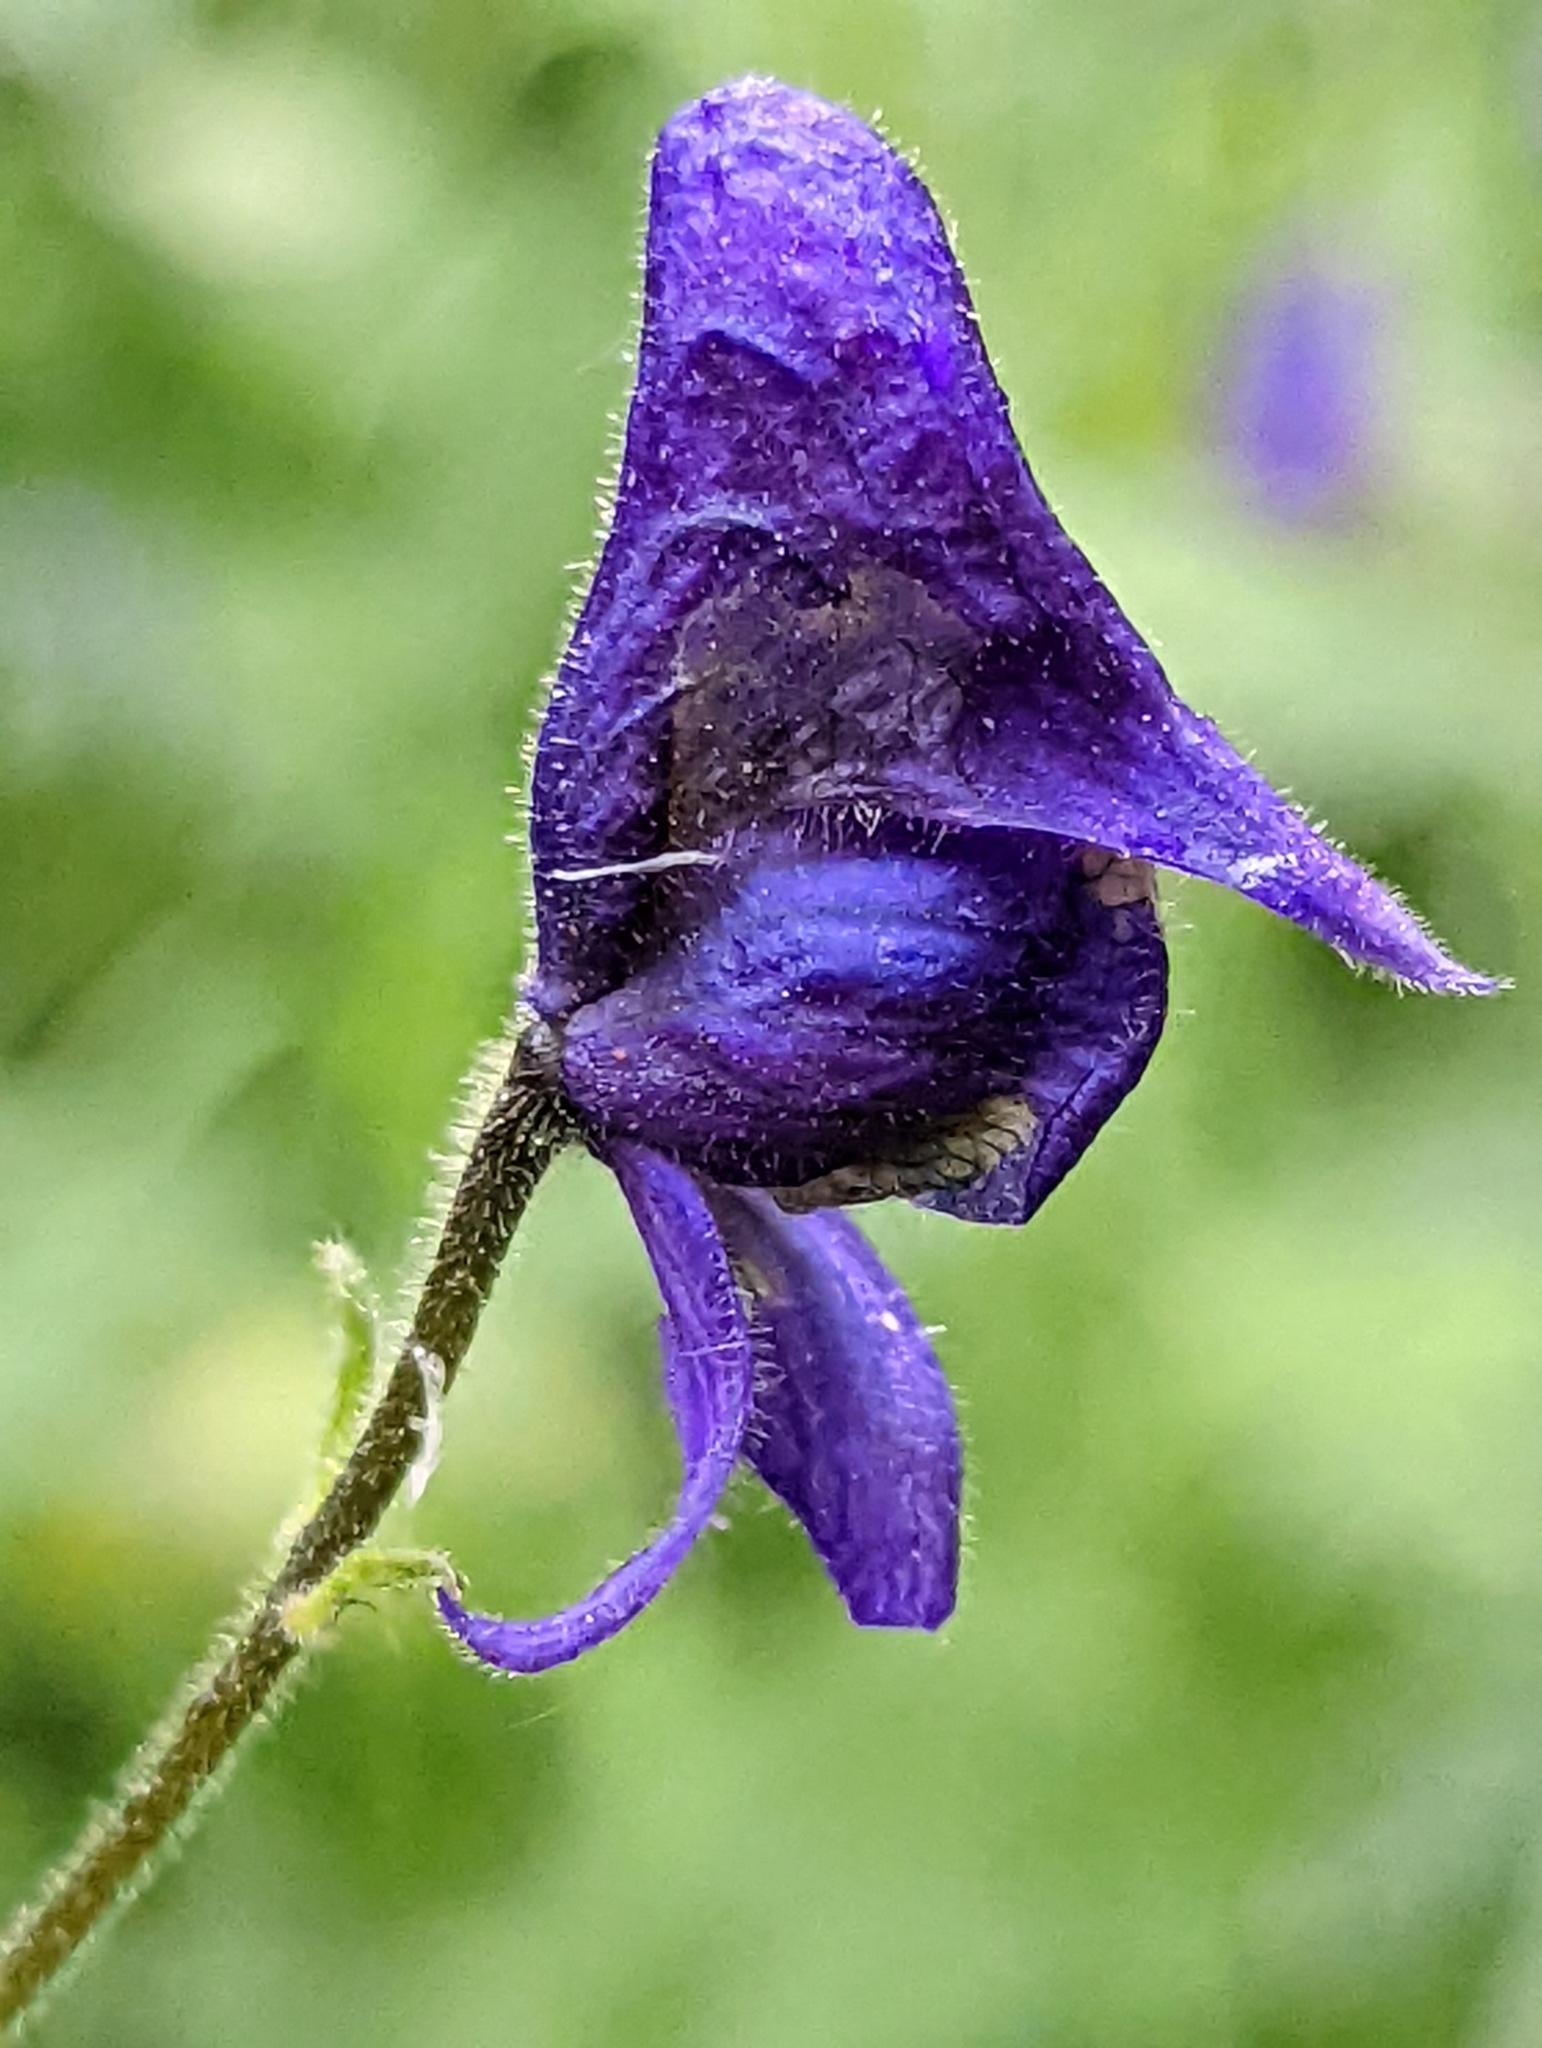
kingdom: Plantae
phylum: Tracheophyta
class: Magnoliopsida
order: Ranunculales
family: Ranunculaceae
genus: Aconitum
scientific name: Aconitum columbianum
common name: Columbia aconite
